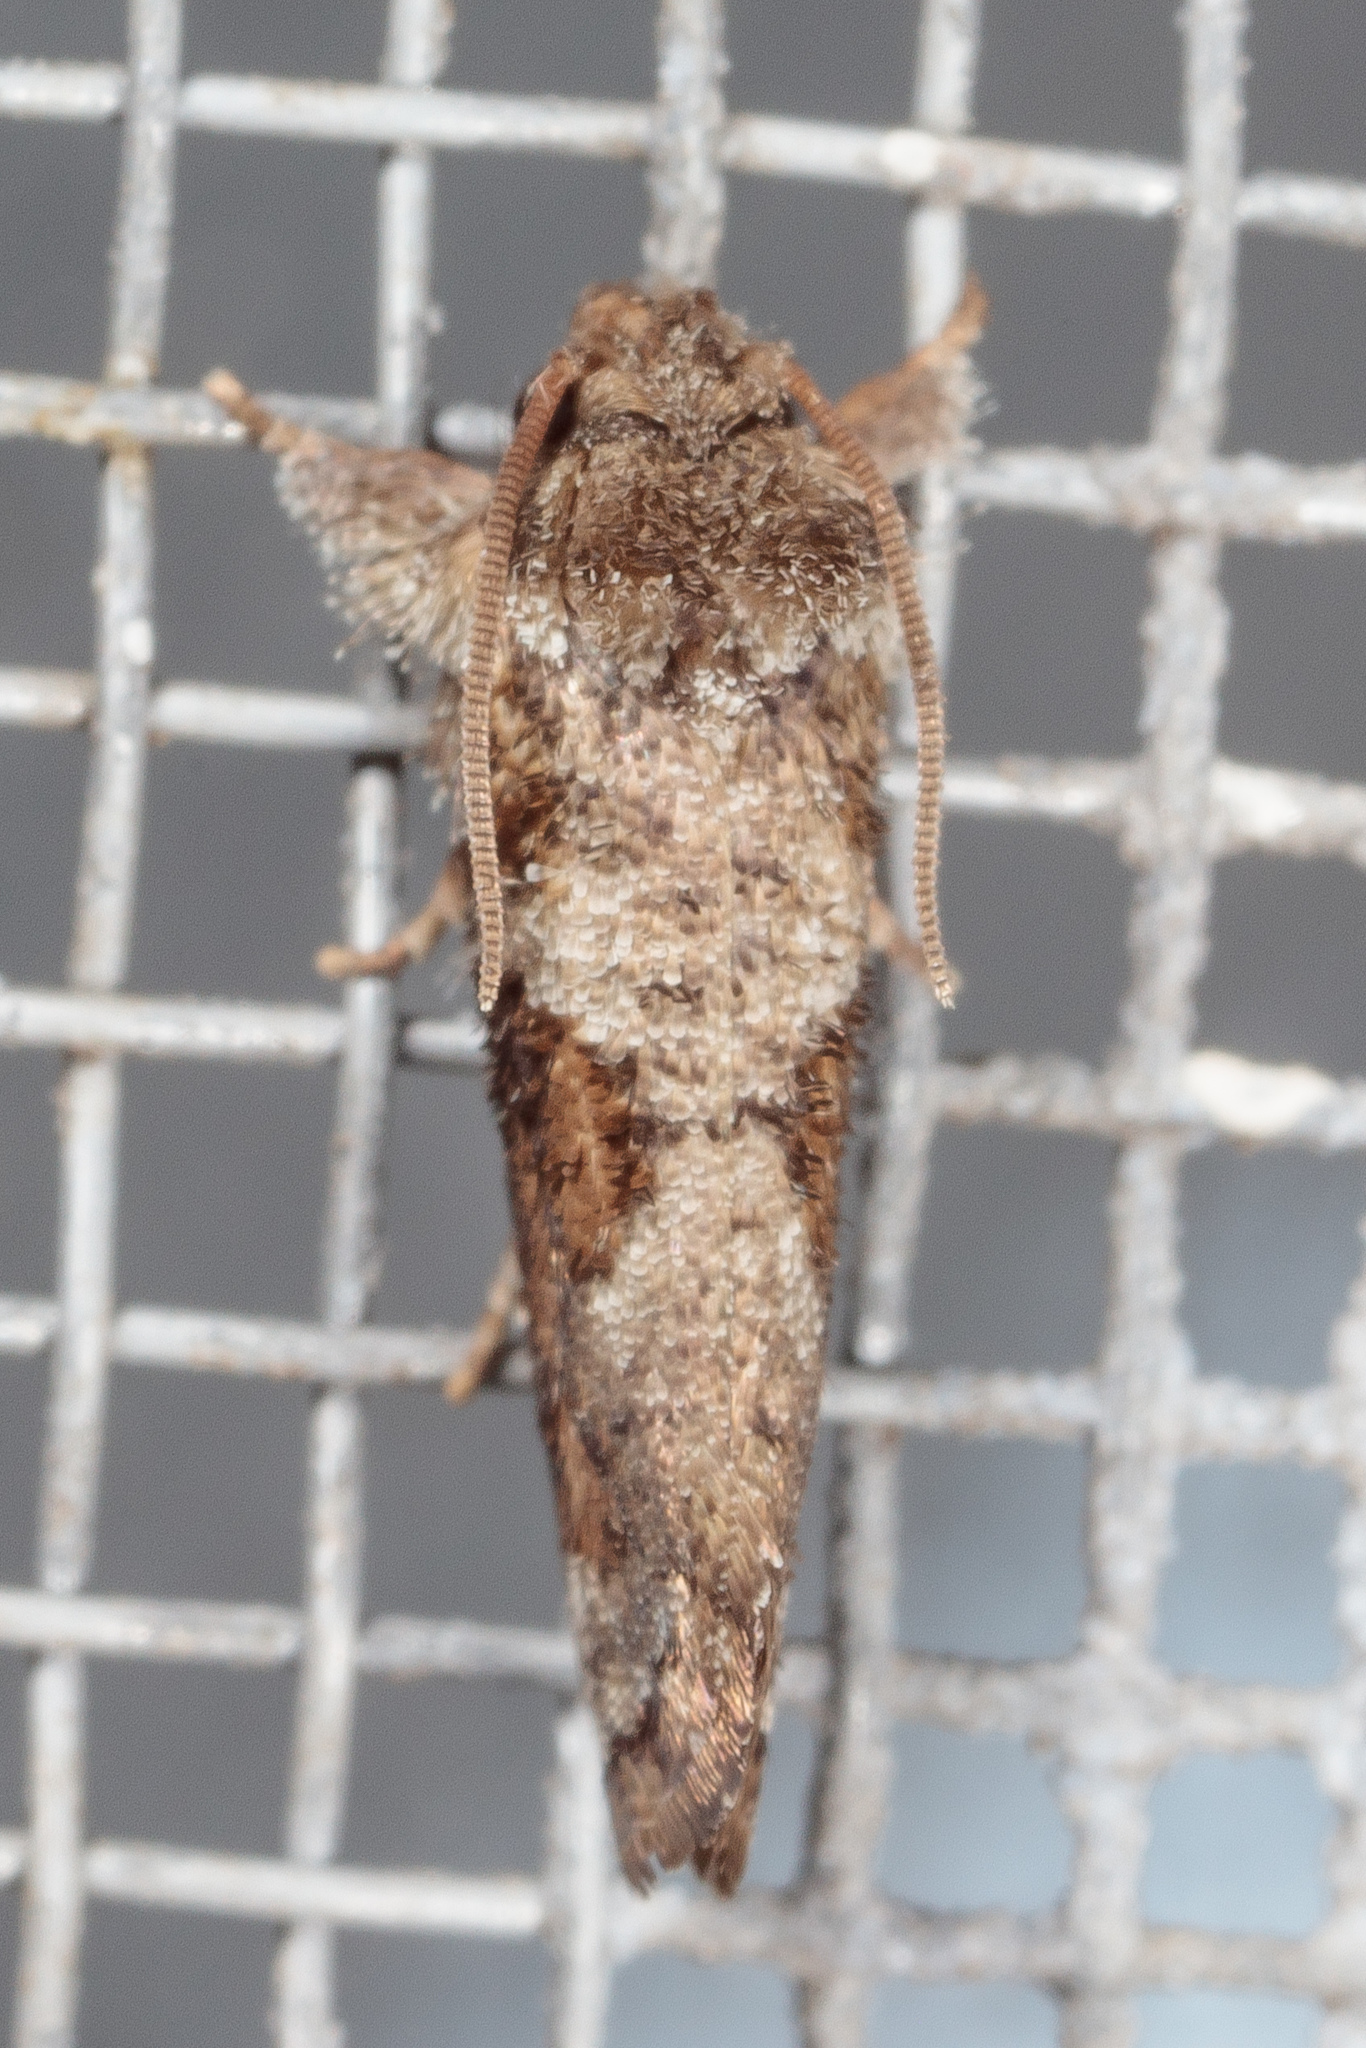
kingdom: Animalia
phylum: Arthropoda
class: Insecta
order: Lepidoptera
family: Tineidae
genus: Acrolophus
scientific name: Acrolophus piger
